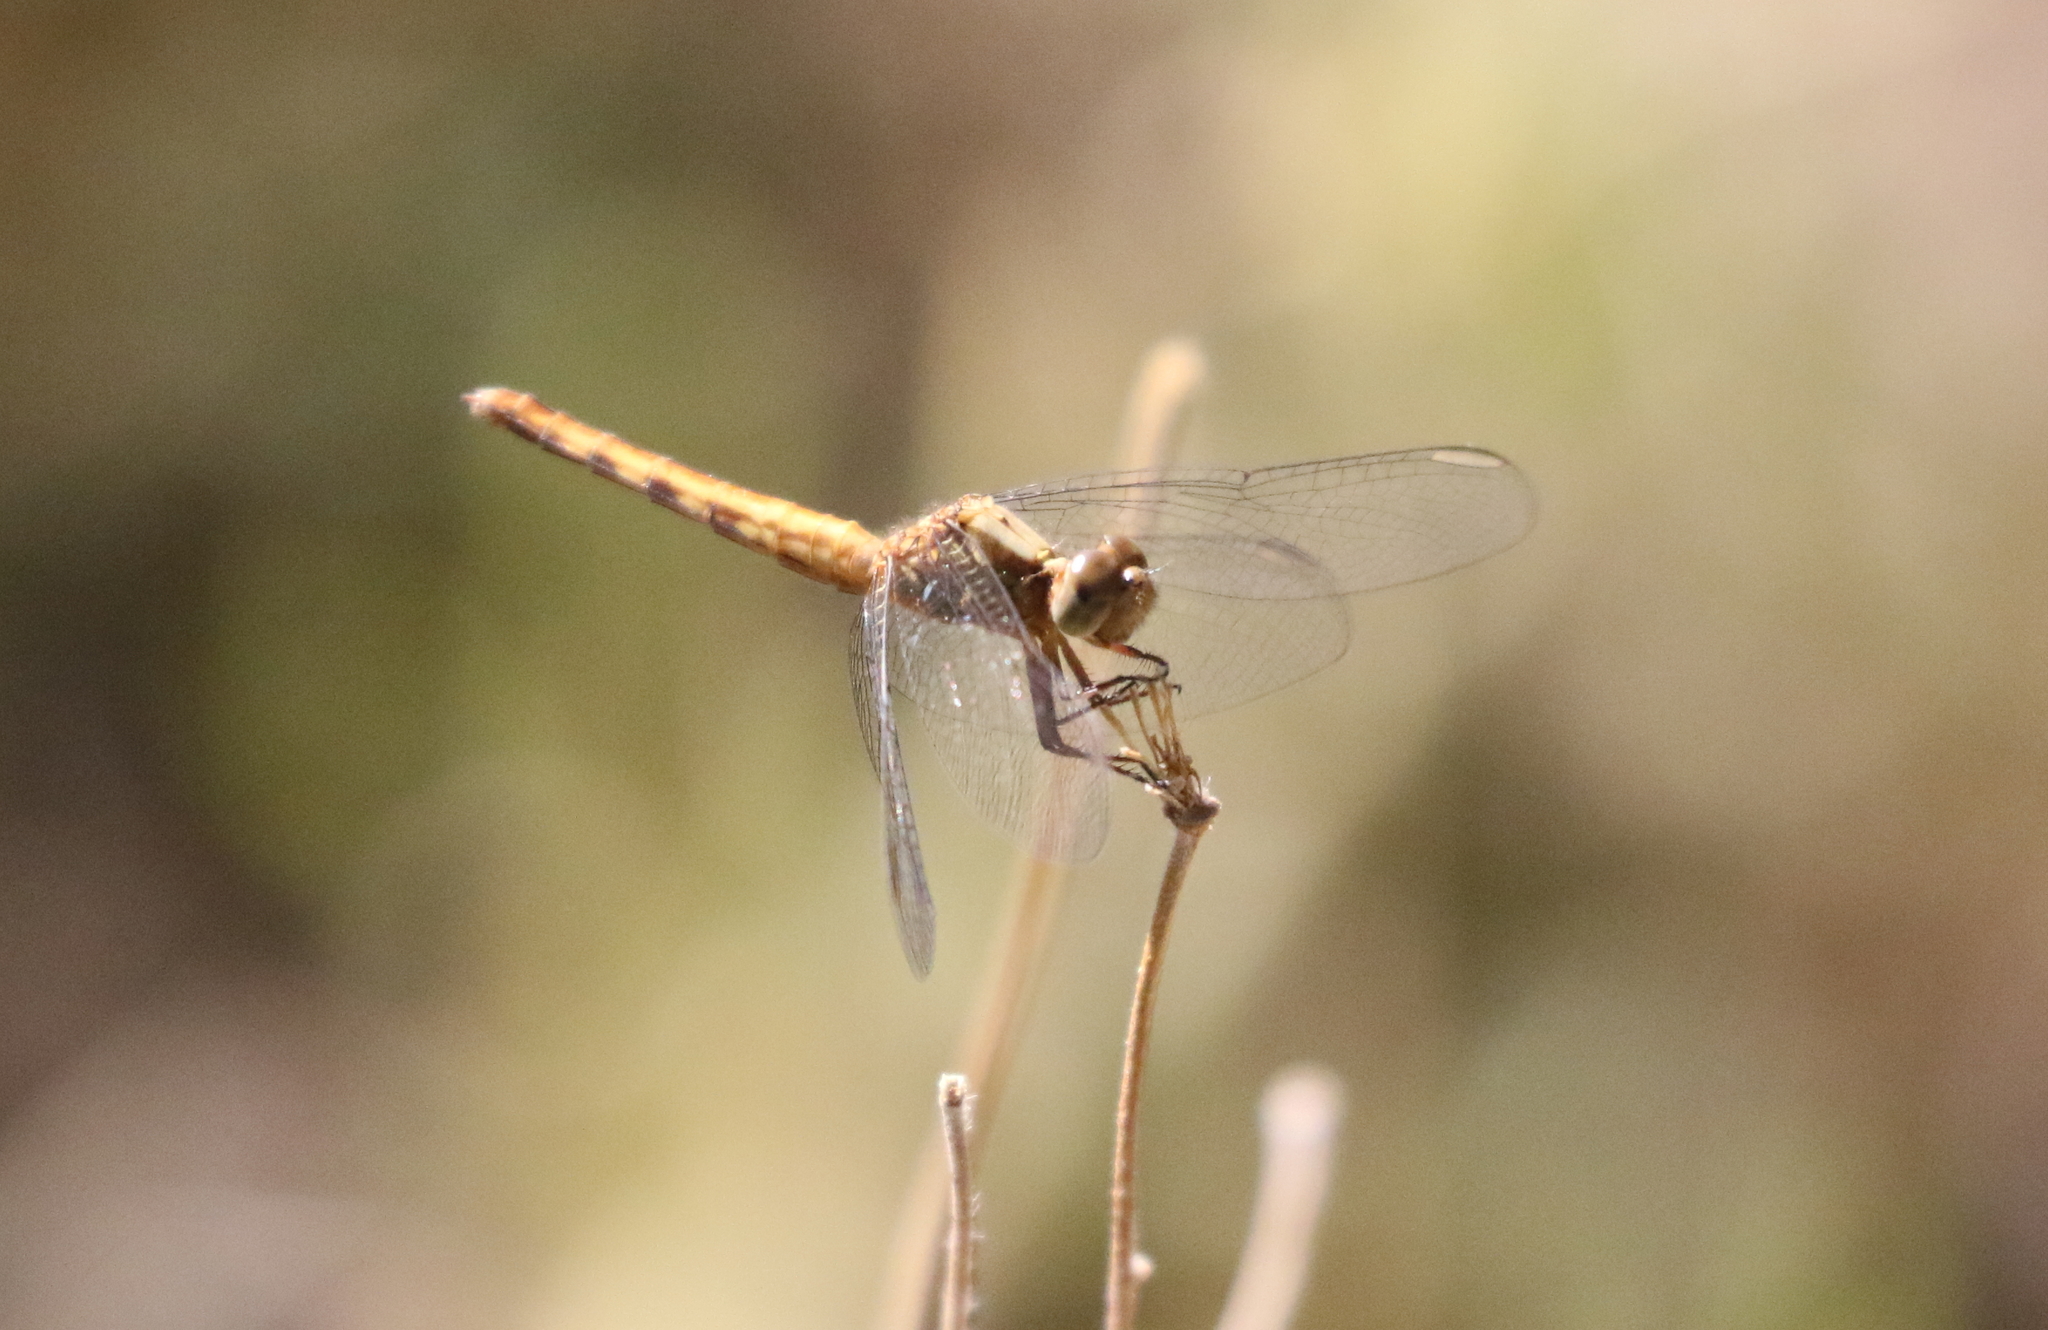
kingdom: Animalia
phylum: Arthropoda
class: Insecta
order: Odonata
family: Libellulidae
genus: Erythrodiplax
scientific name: Erythrodiplax basifusca
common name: Plateau dragonlet
